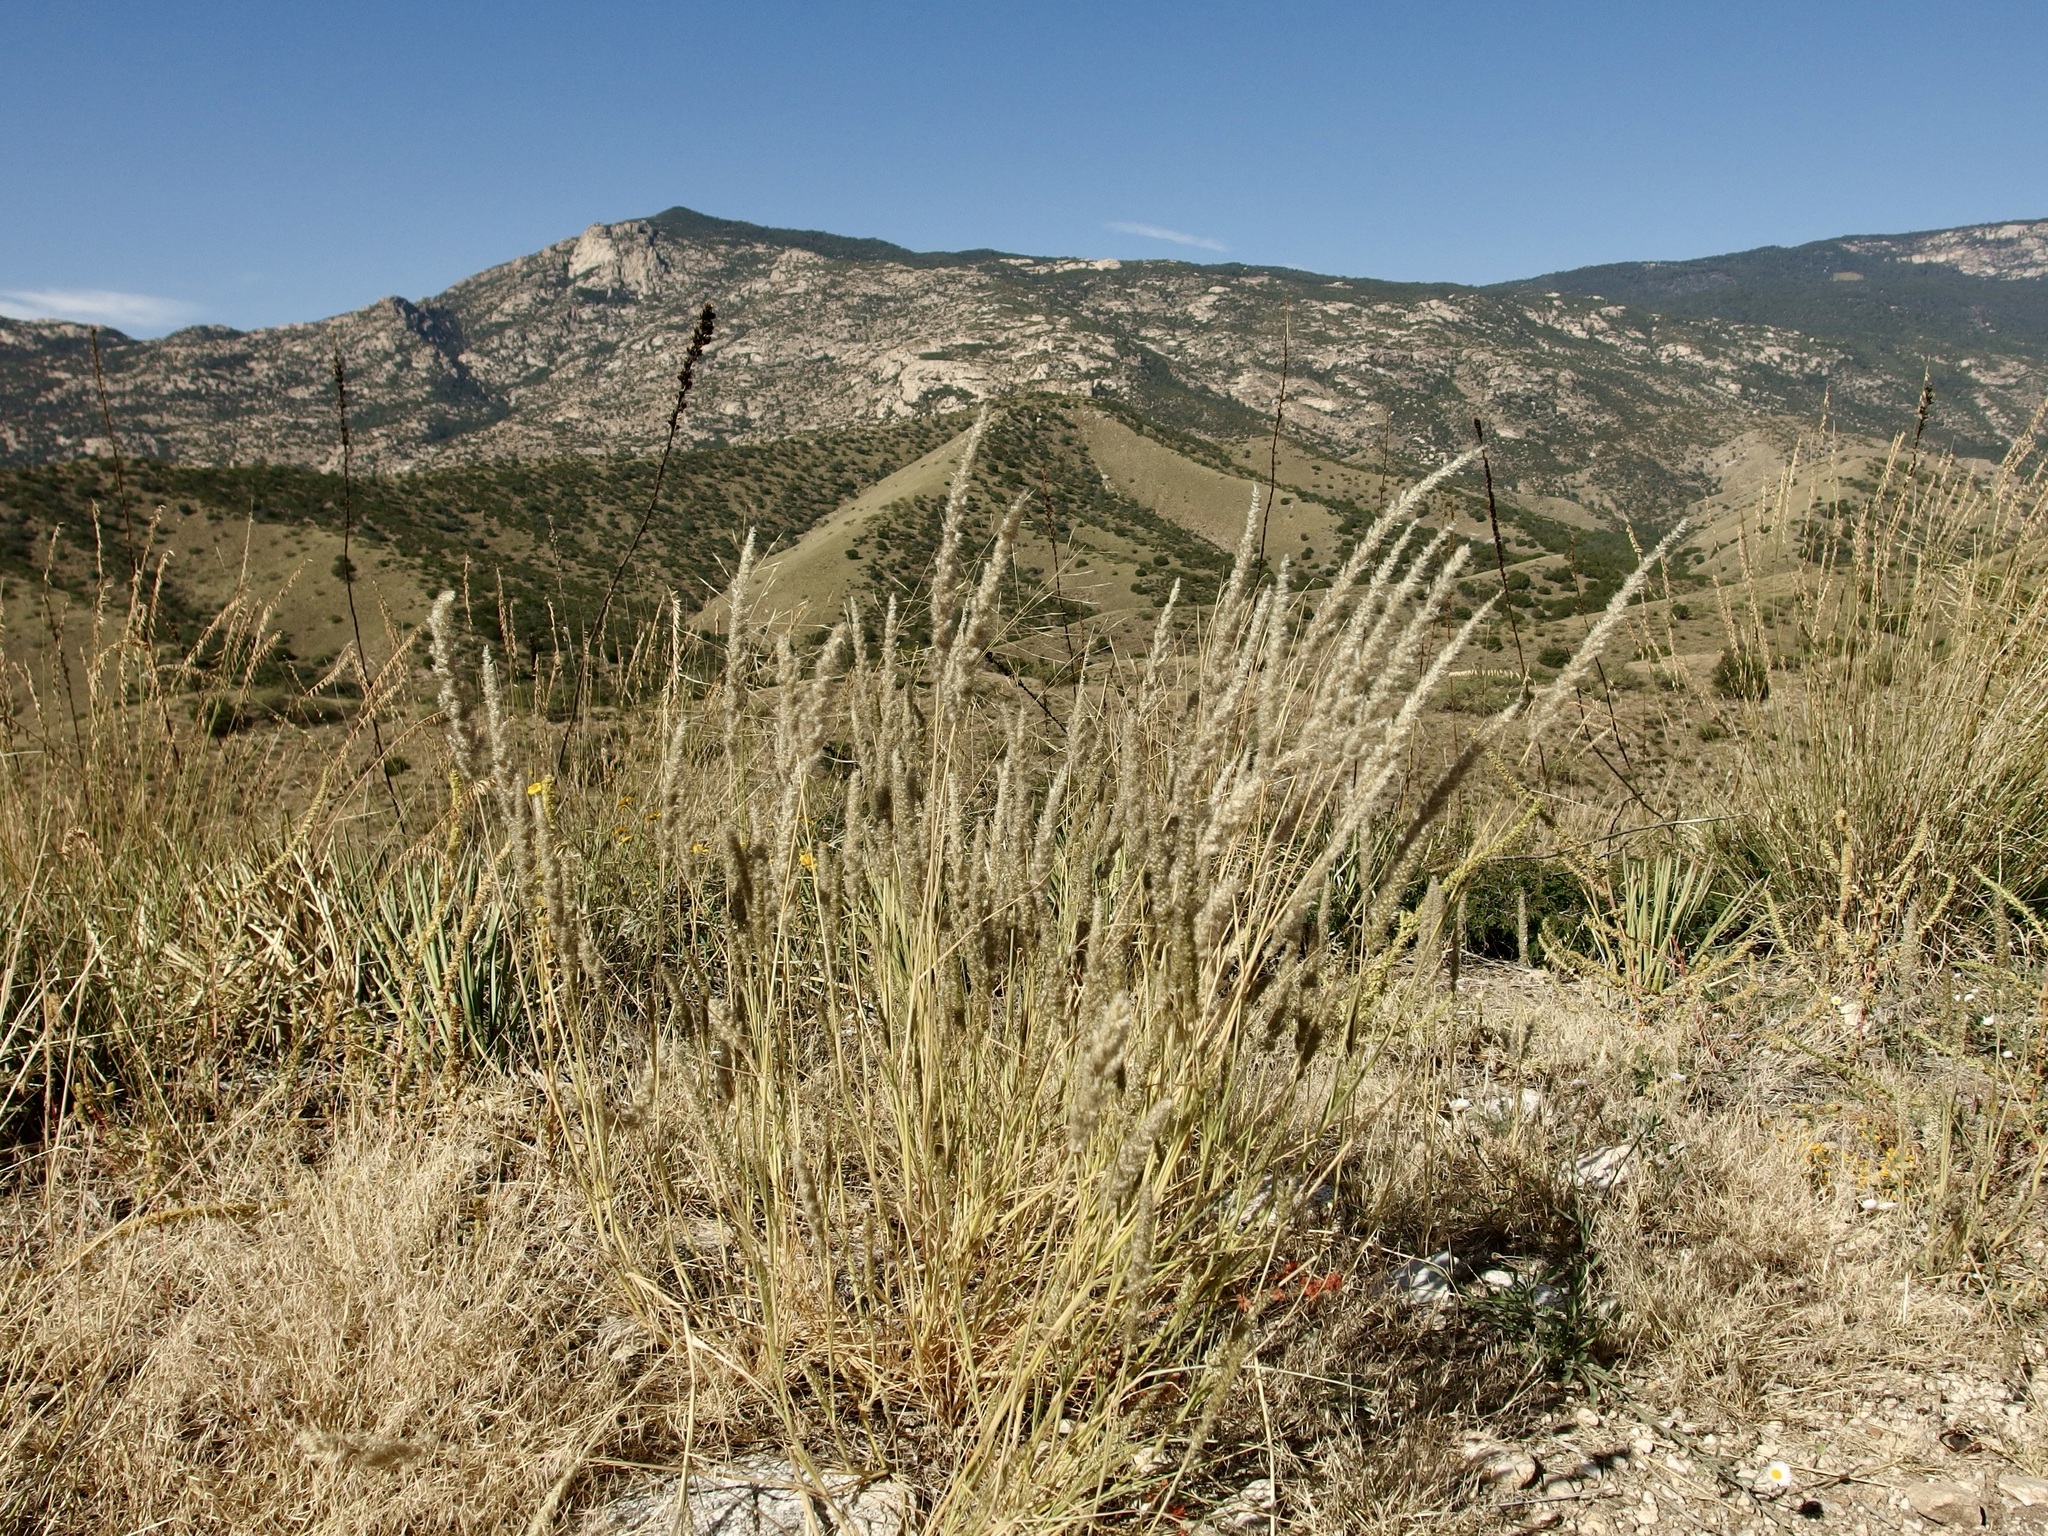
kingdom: Plantae
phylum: Tracheophyta
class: Liliopsida
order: Poales
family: Poaceae
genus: Enneapogon
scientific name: Enneapogon cenchroides
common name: Soft feather pappusgrass
